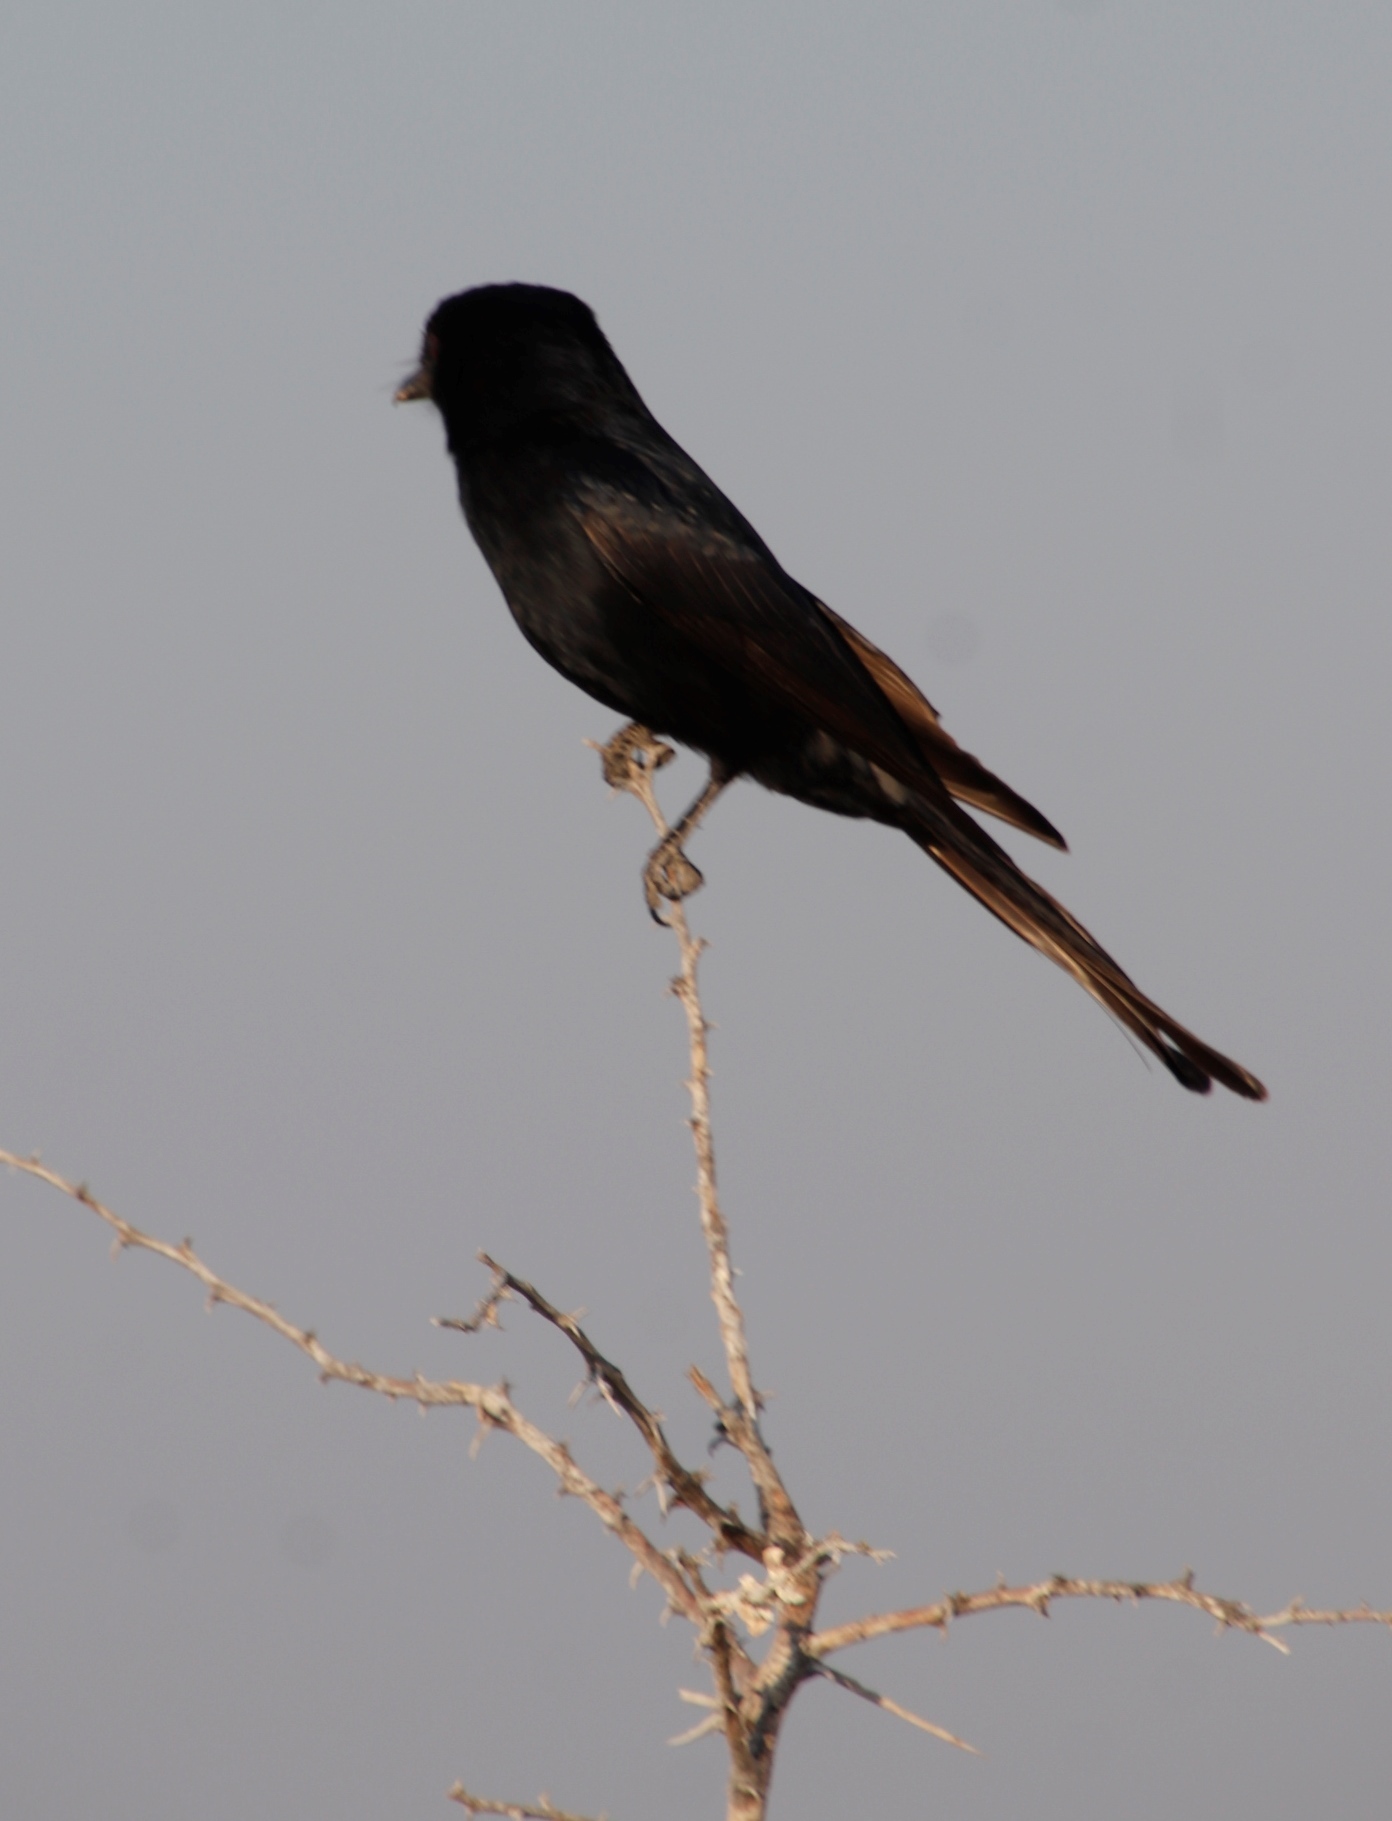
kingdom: Animalia
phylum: Chordata
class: Aves
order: Passeriformes
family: Dicruridae
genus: Dicrurus
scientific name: Dicrurus adsimilis
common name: Fork-tailed drongo
